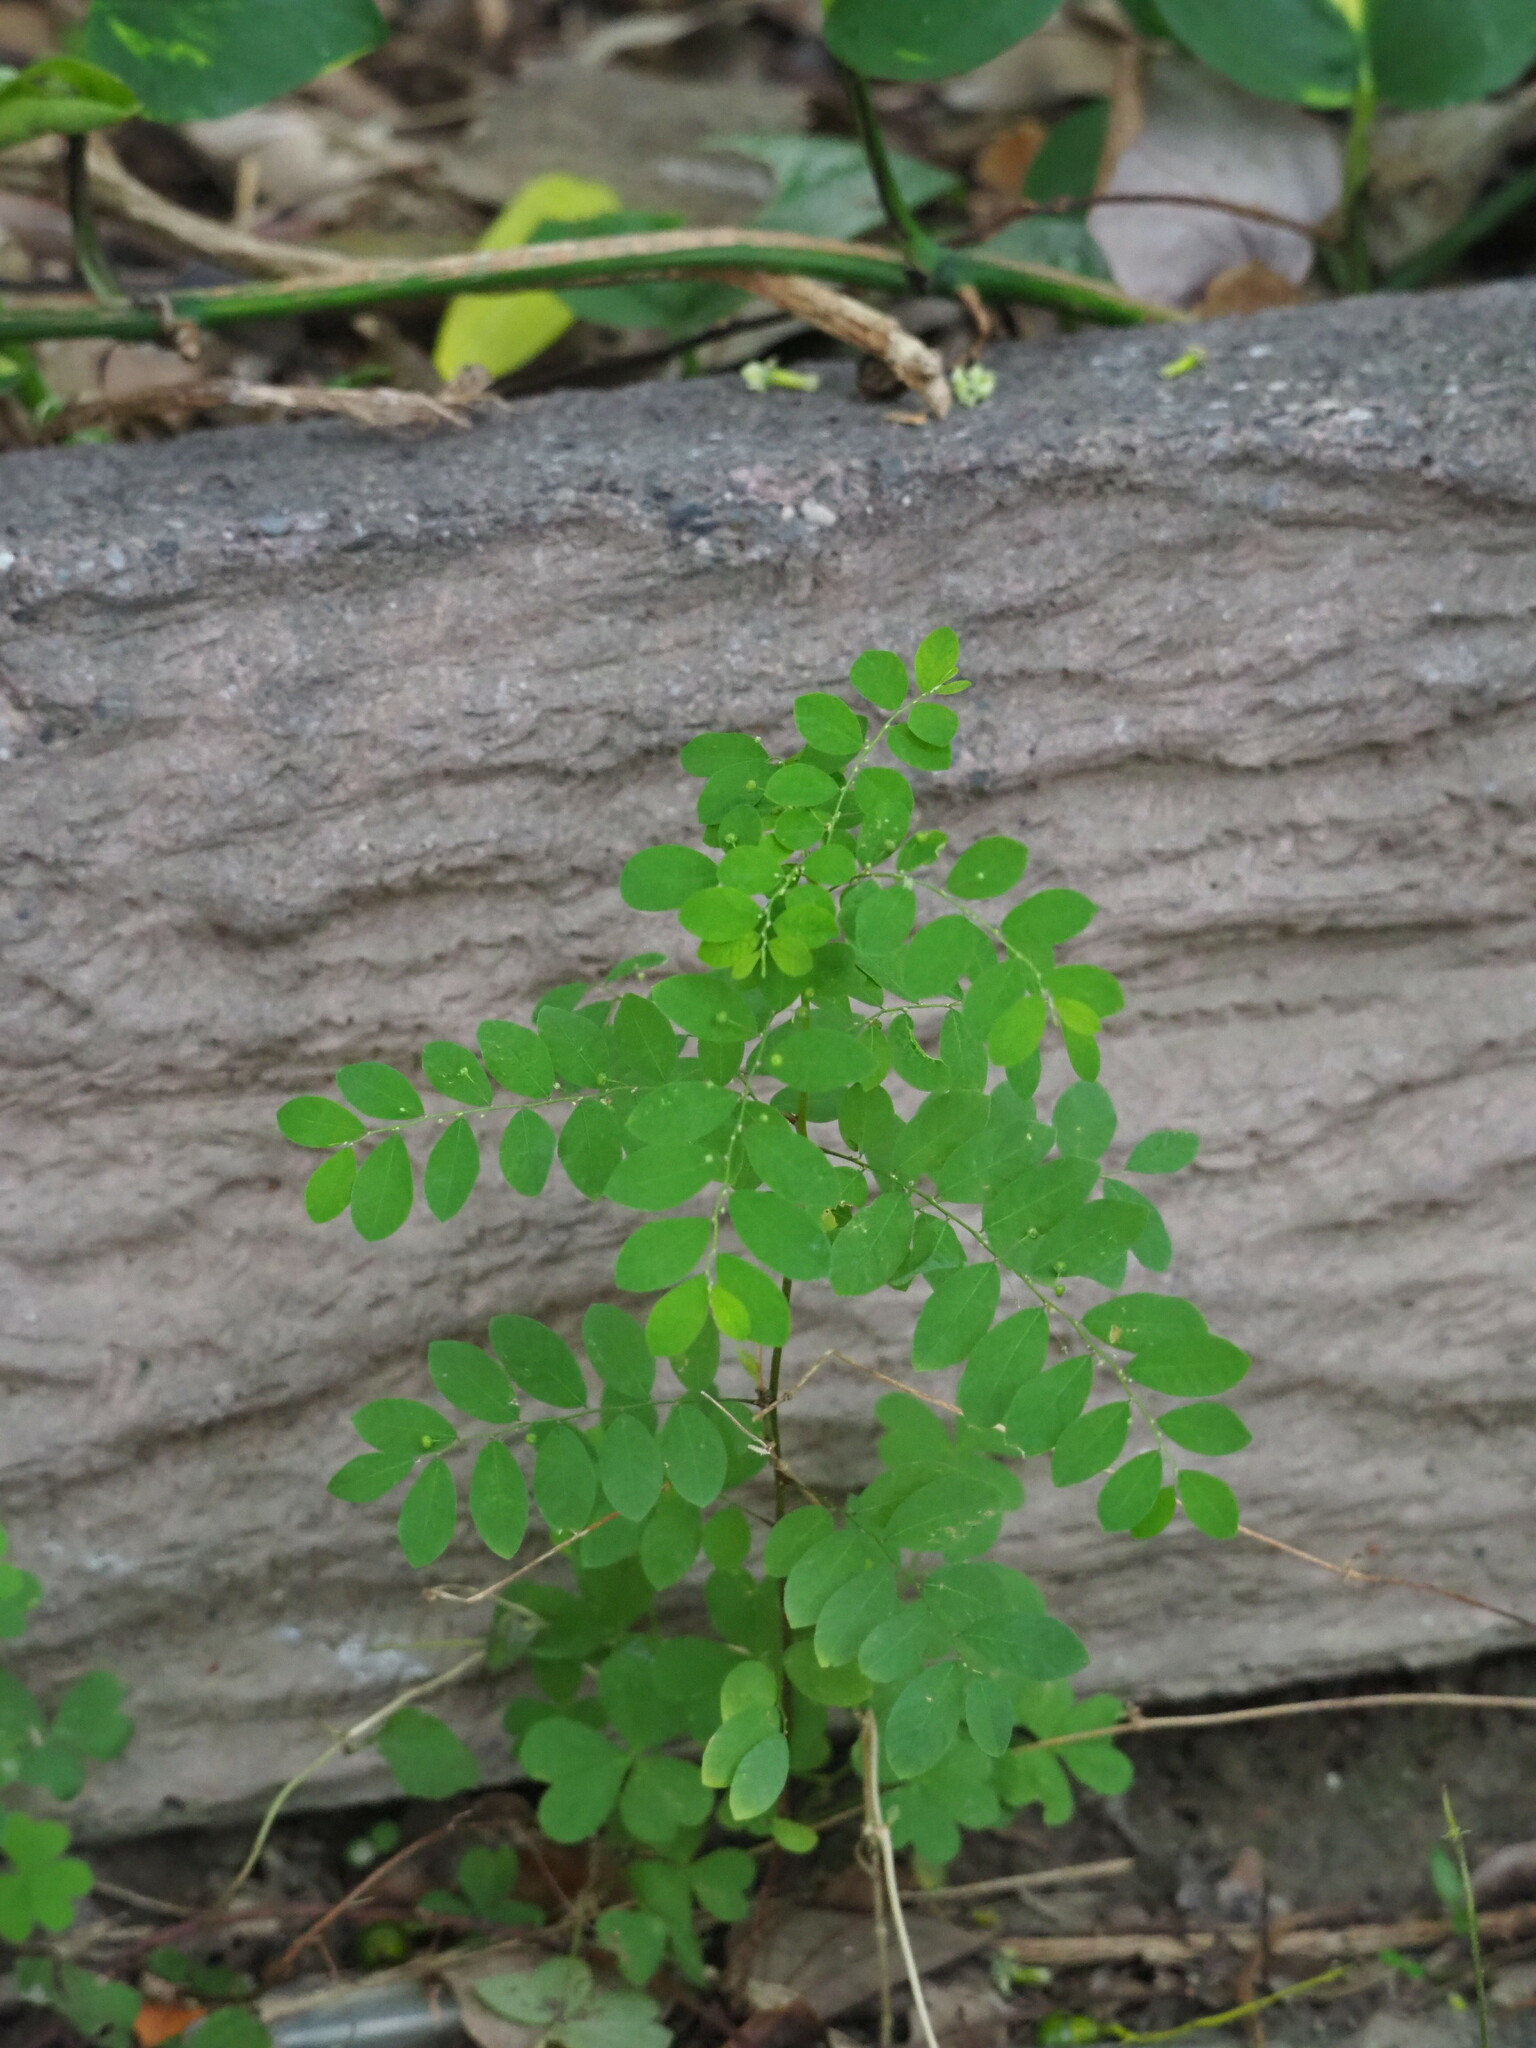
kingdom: Plantae
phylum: Tracheophyta
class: Magnoliopsida
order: Malpighiales
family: Phyllanthaceae
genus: Phyllanthus
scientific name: Phyllanthus tenellus
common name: Mascarene island leaf-flower
